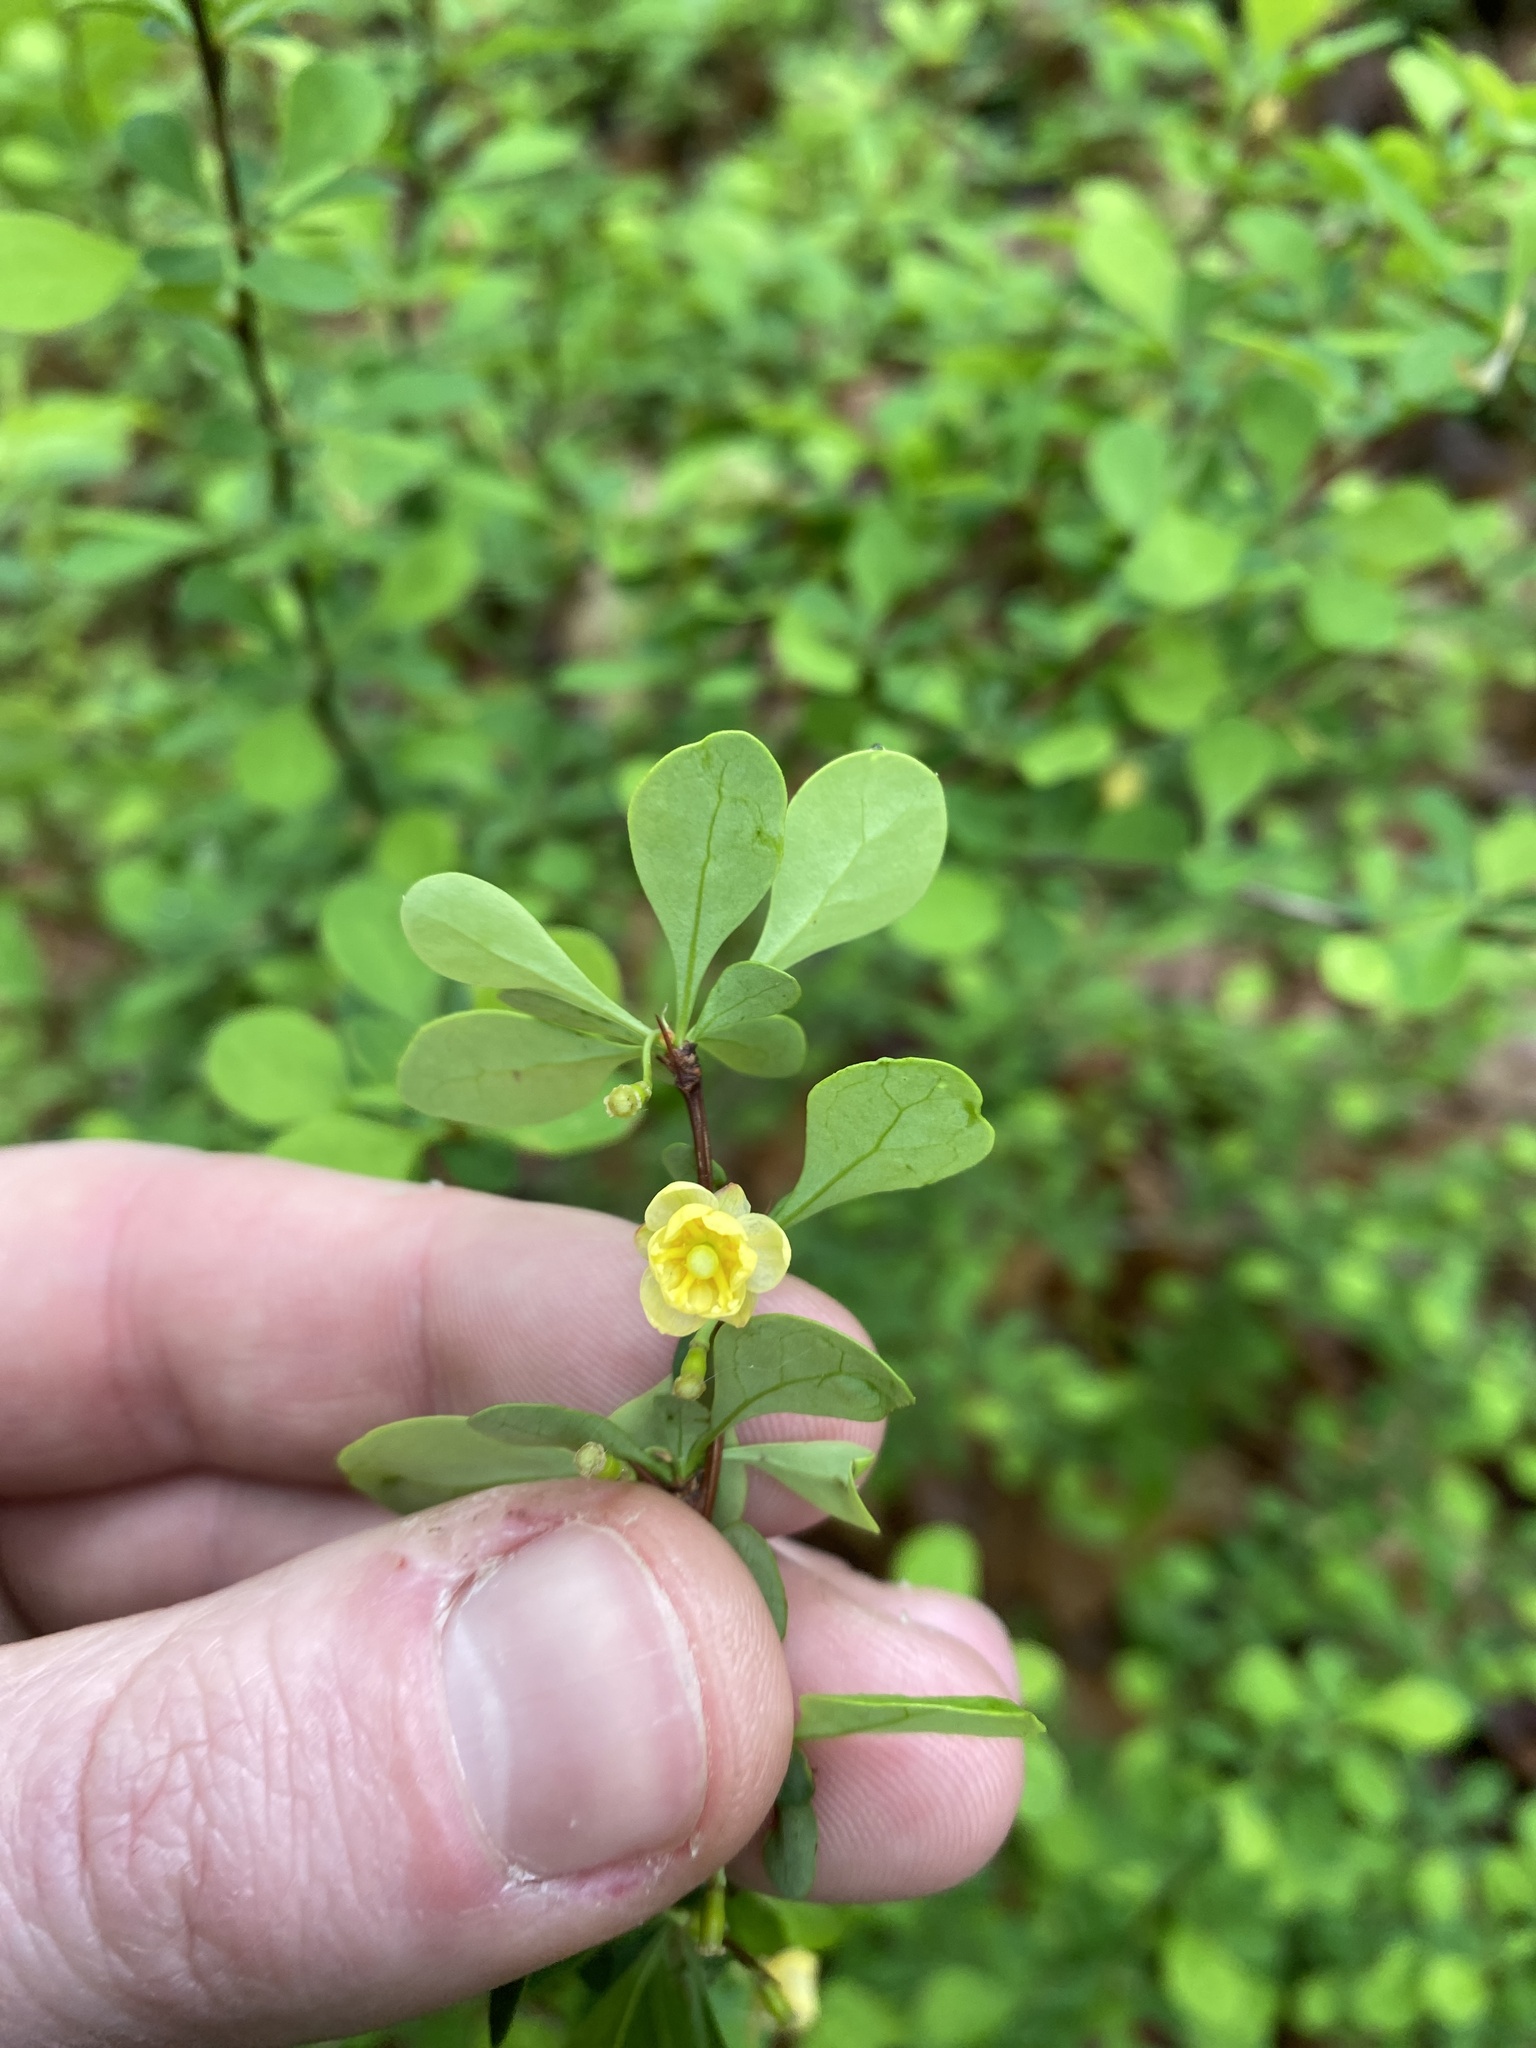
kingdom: Plantae
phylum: Tracheophyta
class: Magnoliopsida
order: Ranunculales
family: Berberidaceae
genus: Berberis
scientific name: Berberis thunbergii
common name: Japanese barberry
